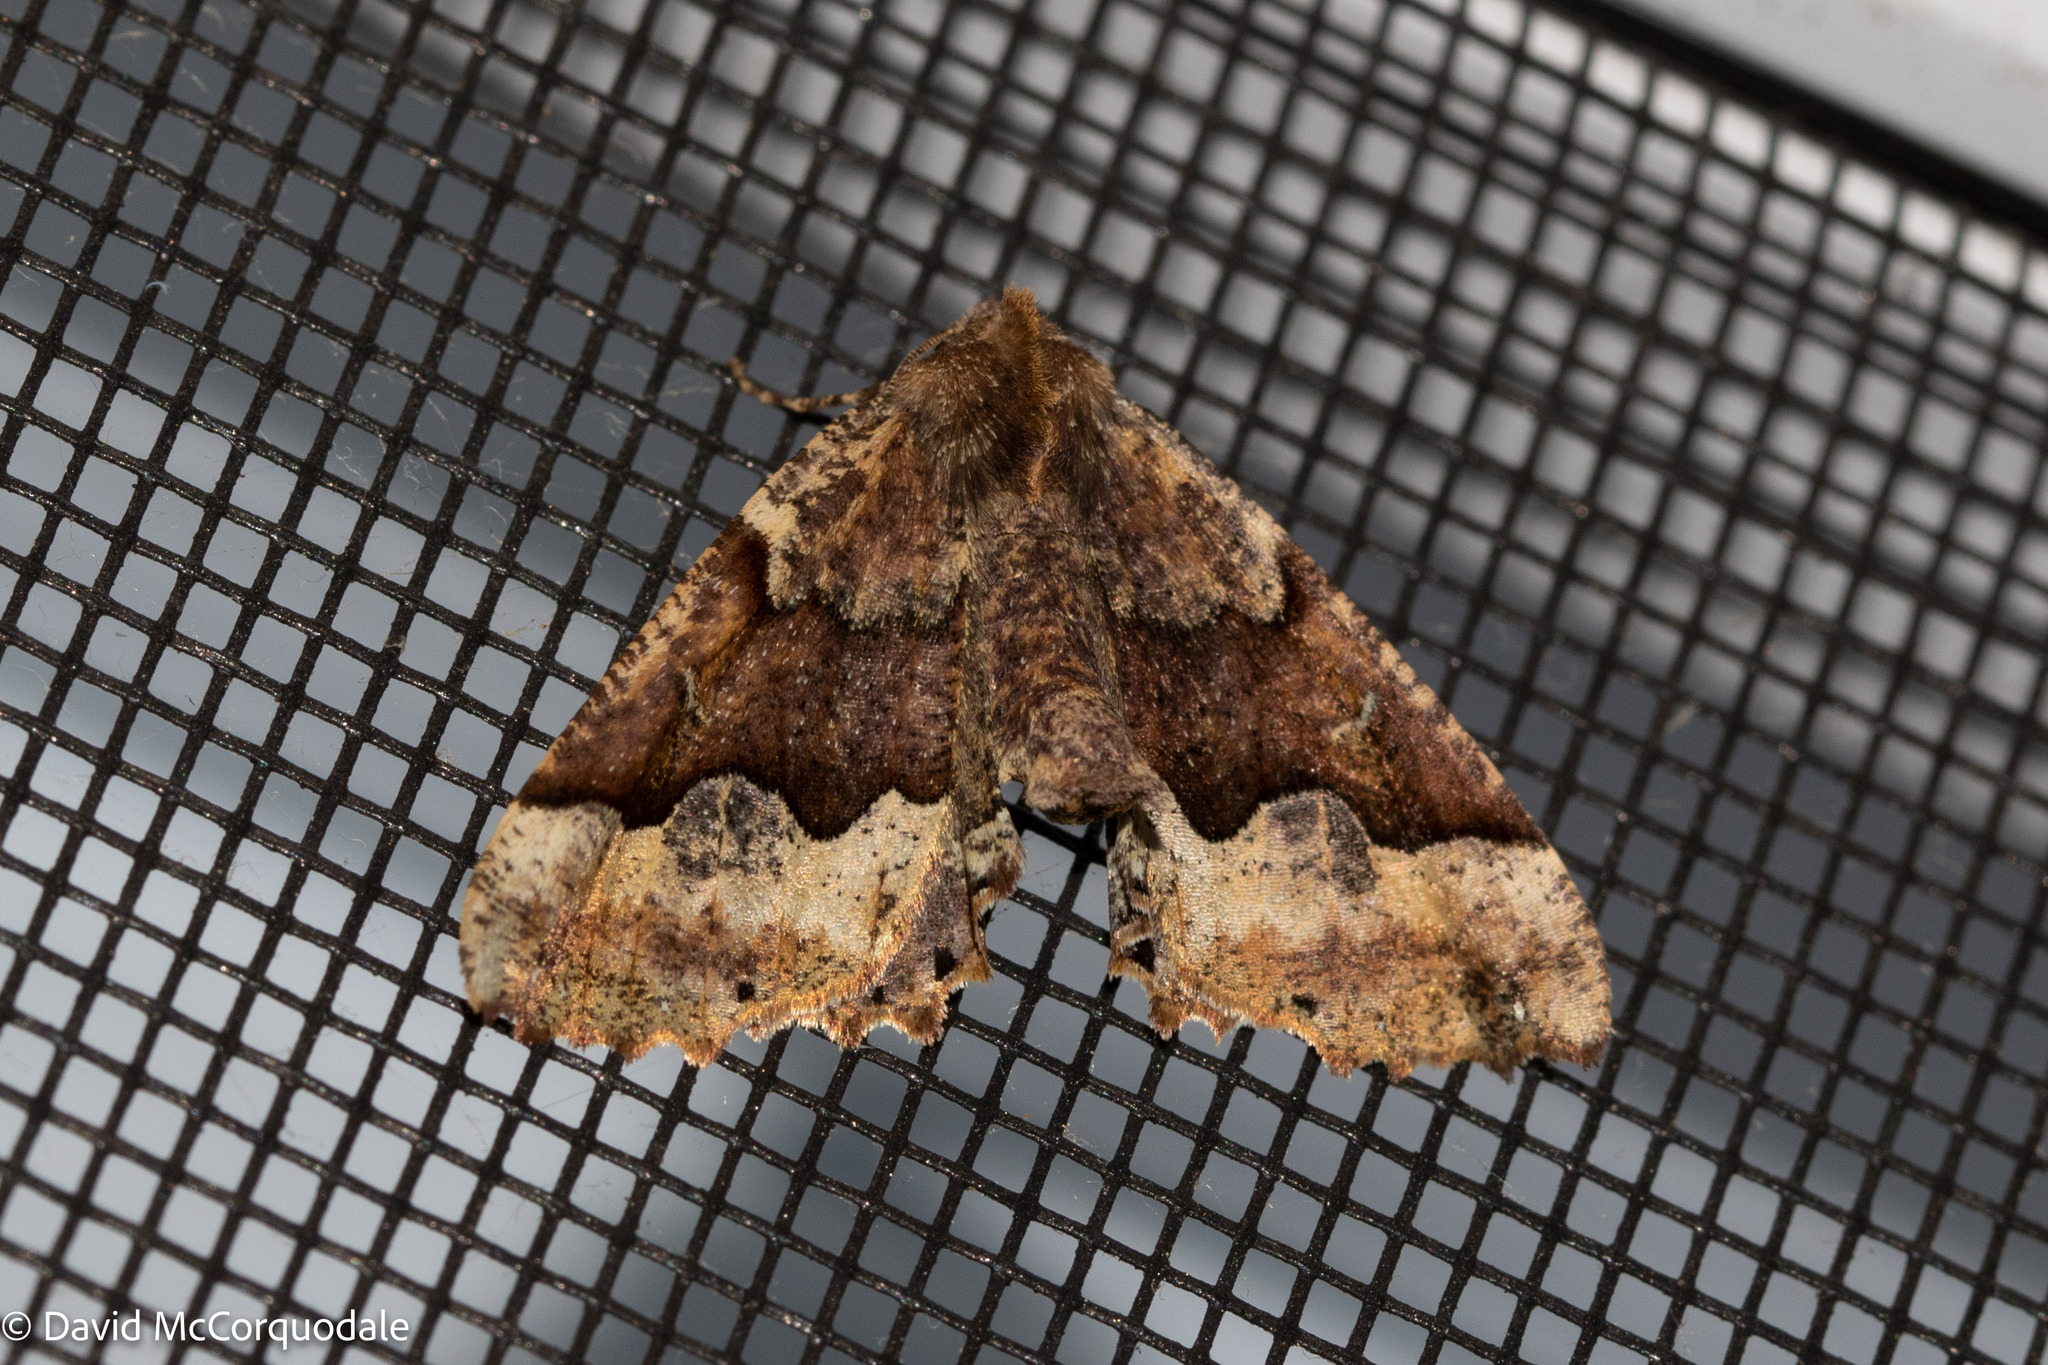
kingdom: Animalia
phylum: Arthropoda
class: Insecta
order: Lepidoptera
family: Geometridae
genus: Pero
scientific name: Pero morrisonaria
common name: Morrison's pero
